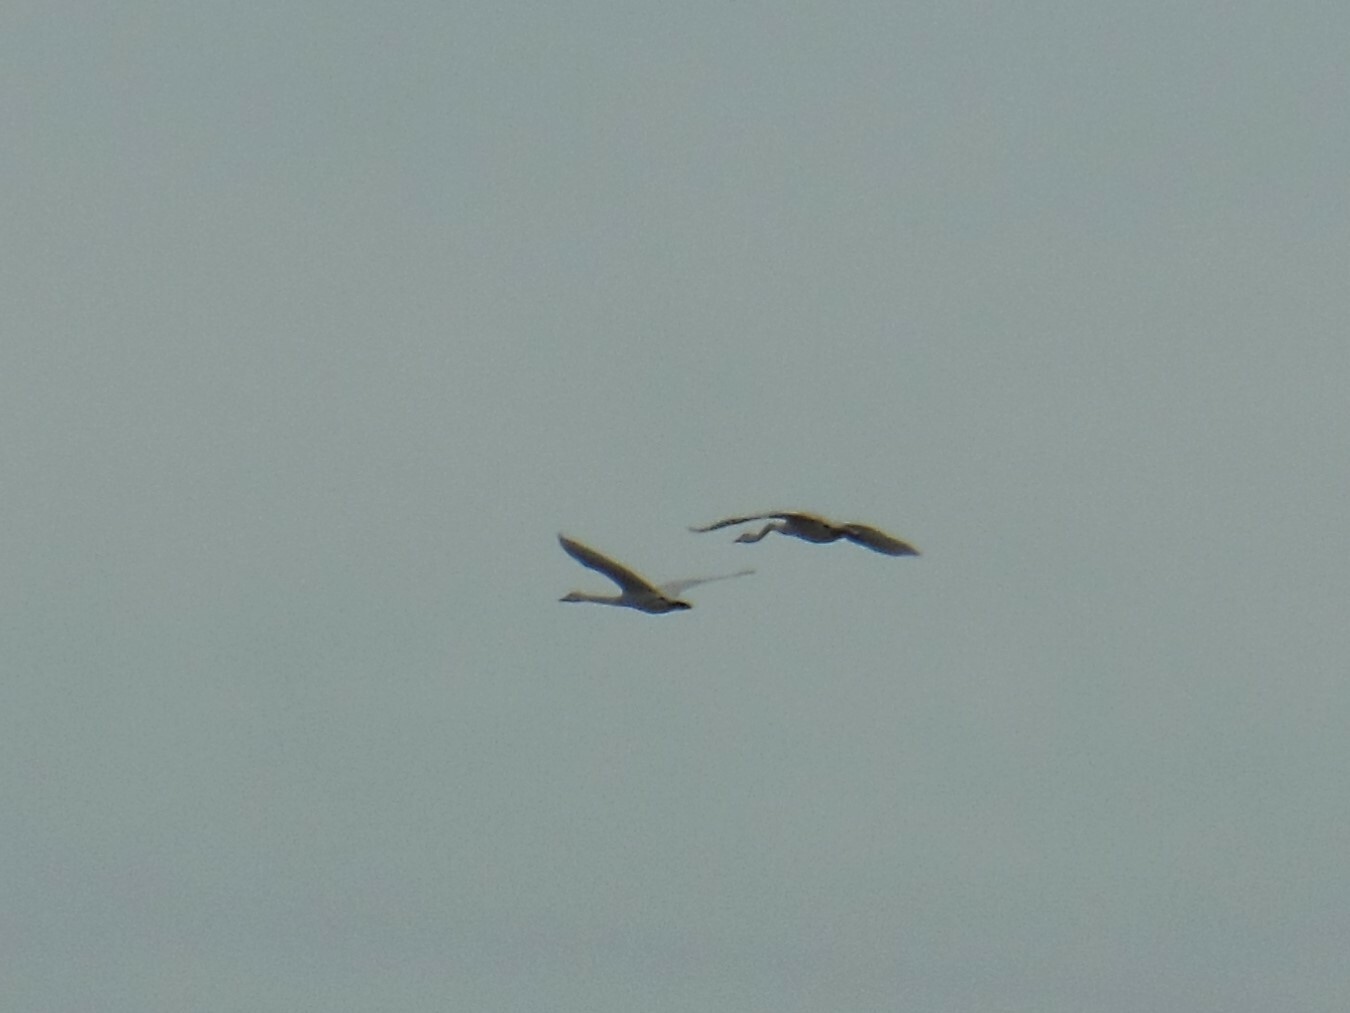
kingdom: Animalia
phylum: Chordata
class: Aves
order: Anseriformes
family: Anatidae
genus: Cygnus
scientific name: Cygnus cygnus
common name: Whooper swan
